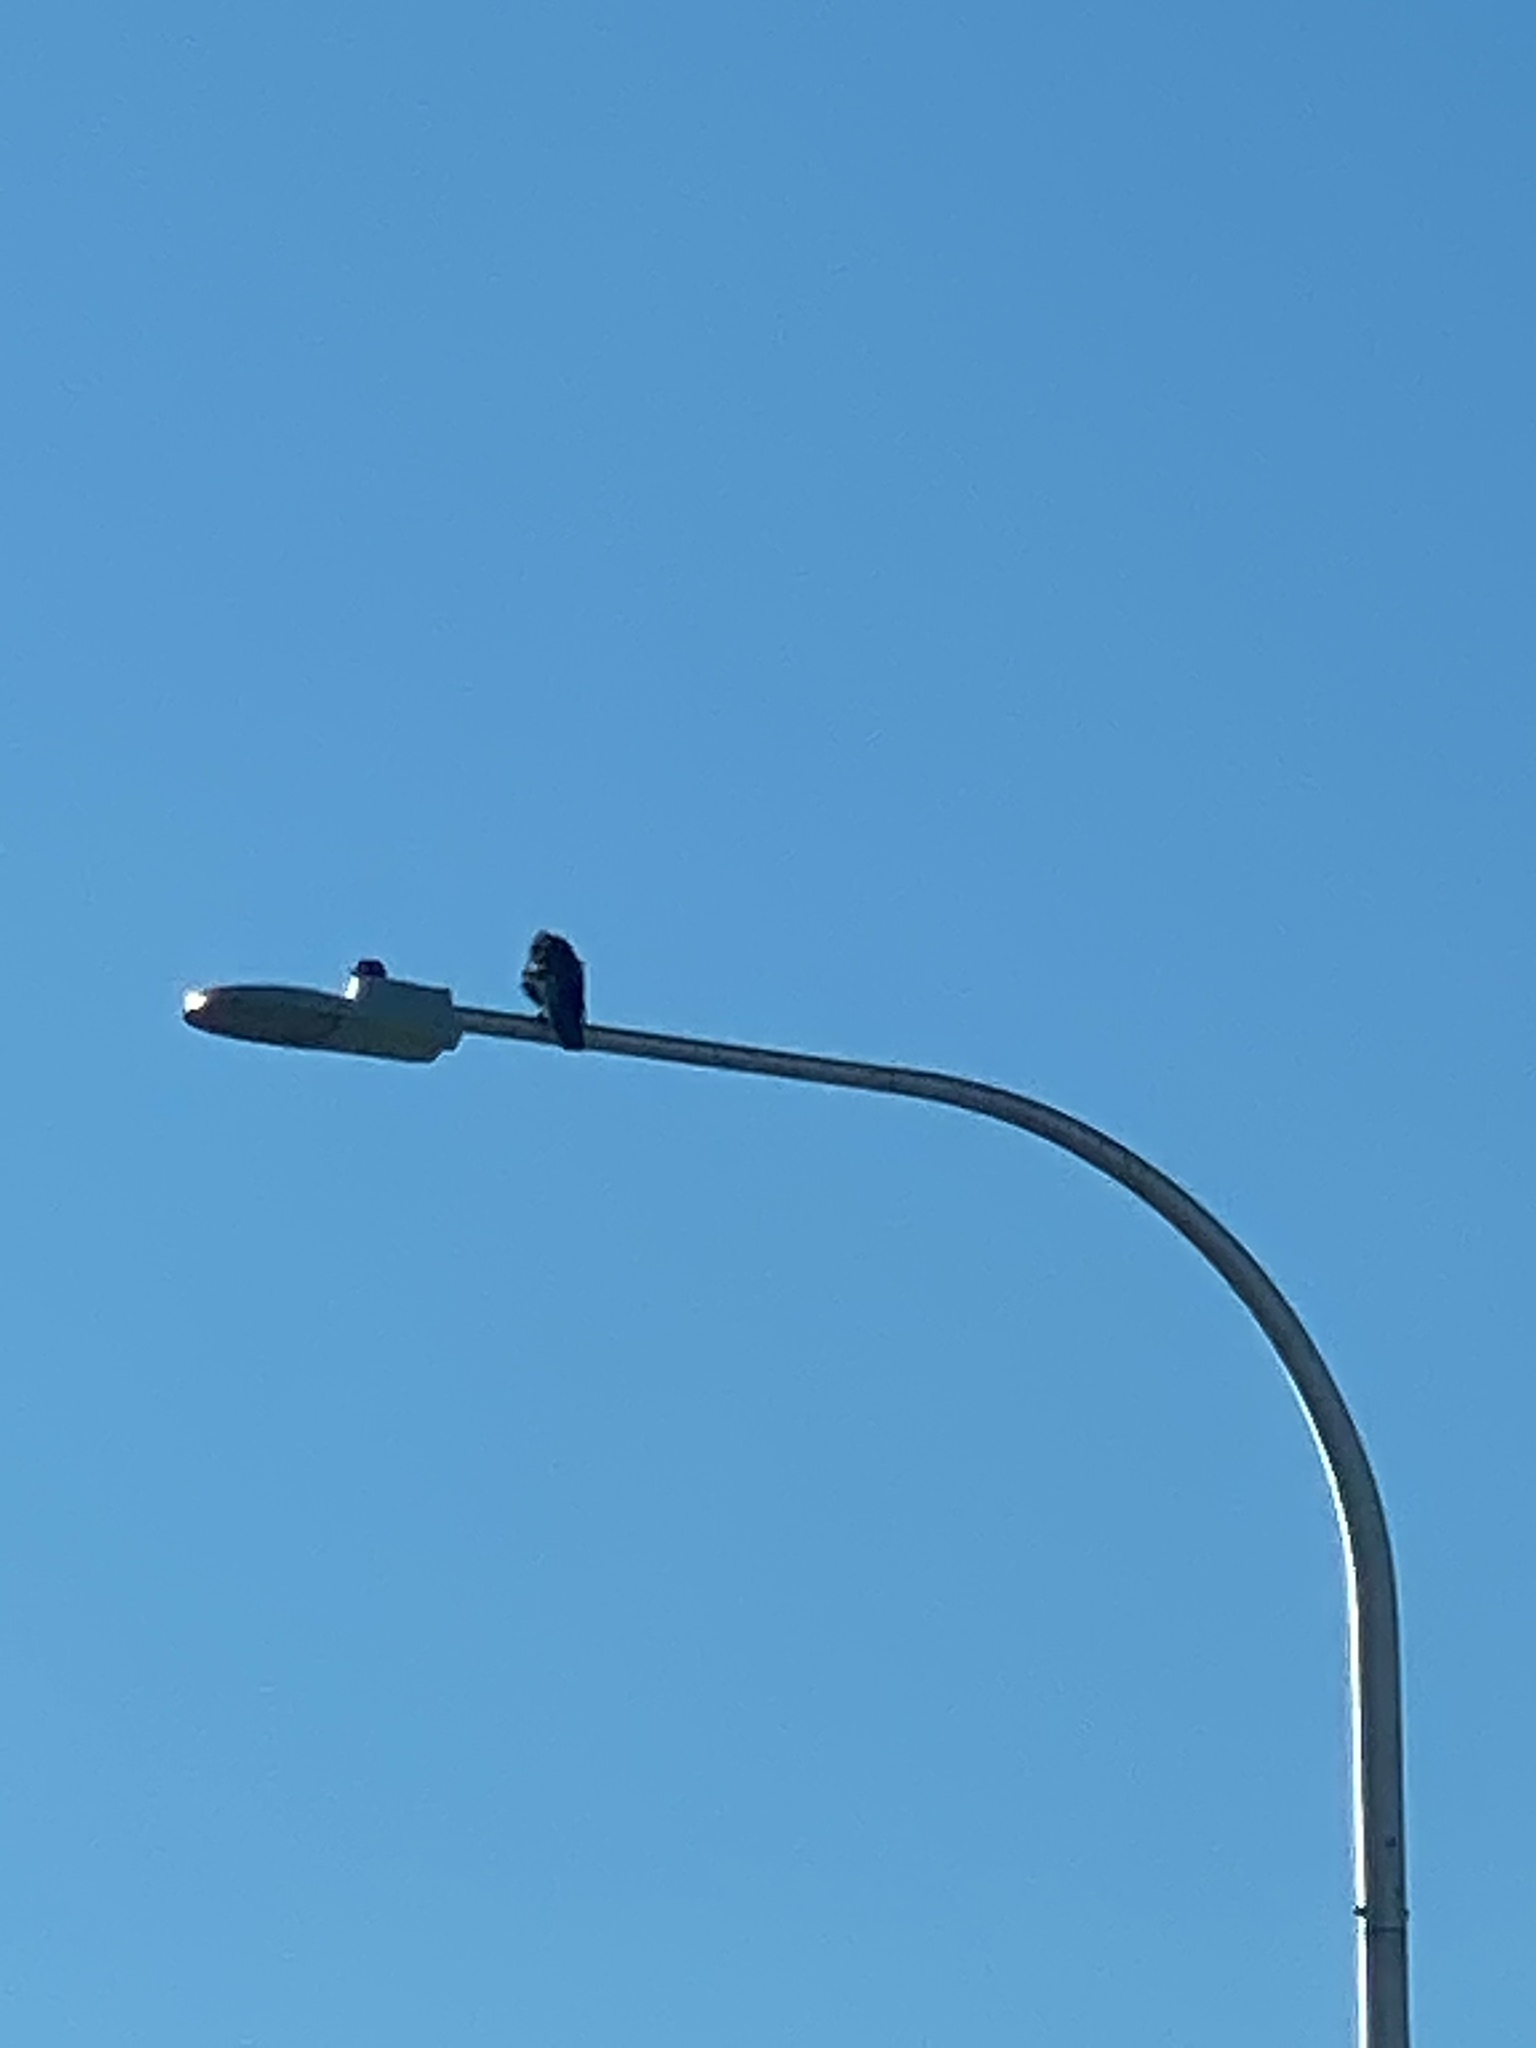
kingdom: Animalia
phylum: Chordata
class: Aves
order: Passeriformes
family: Corvidae
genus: Corvus
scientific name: Corvus brachyrhynchos
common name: American crow
